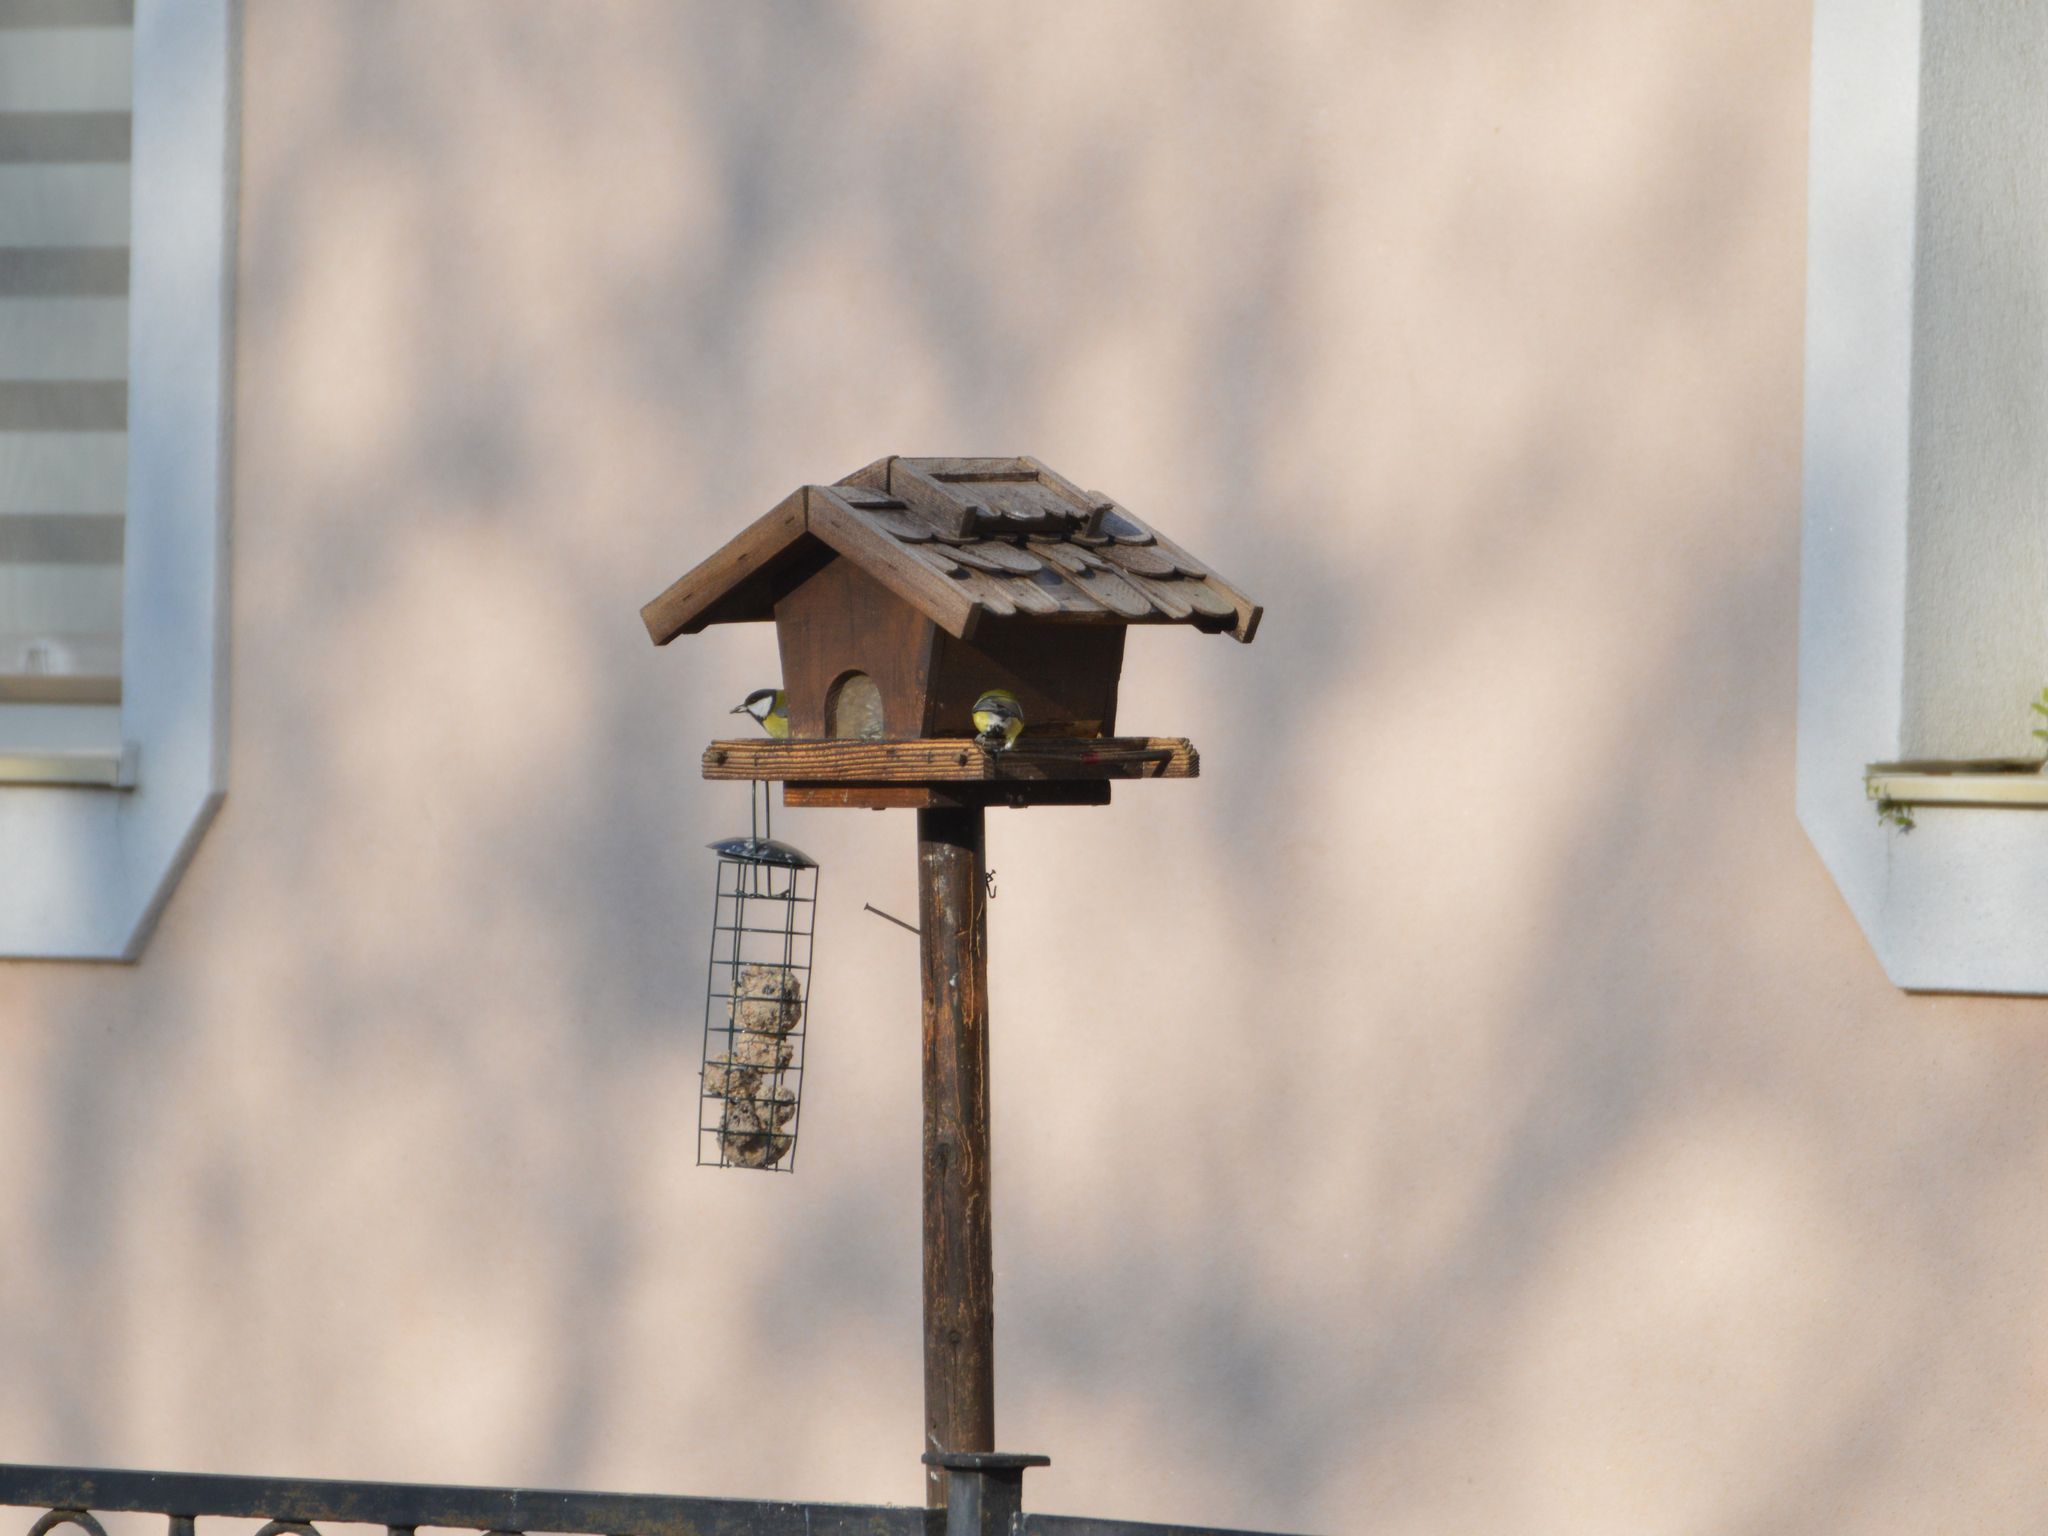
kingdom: Animalia
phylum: Chordata
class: Aves
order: Passeriformes
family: Paridae
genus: Parus
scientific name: Parus major
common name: Great tit
